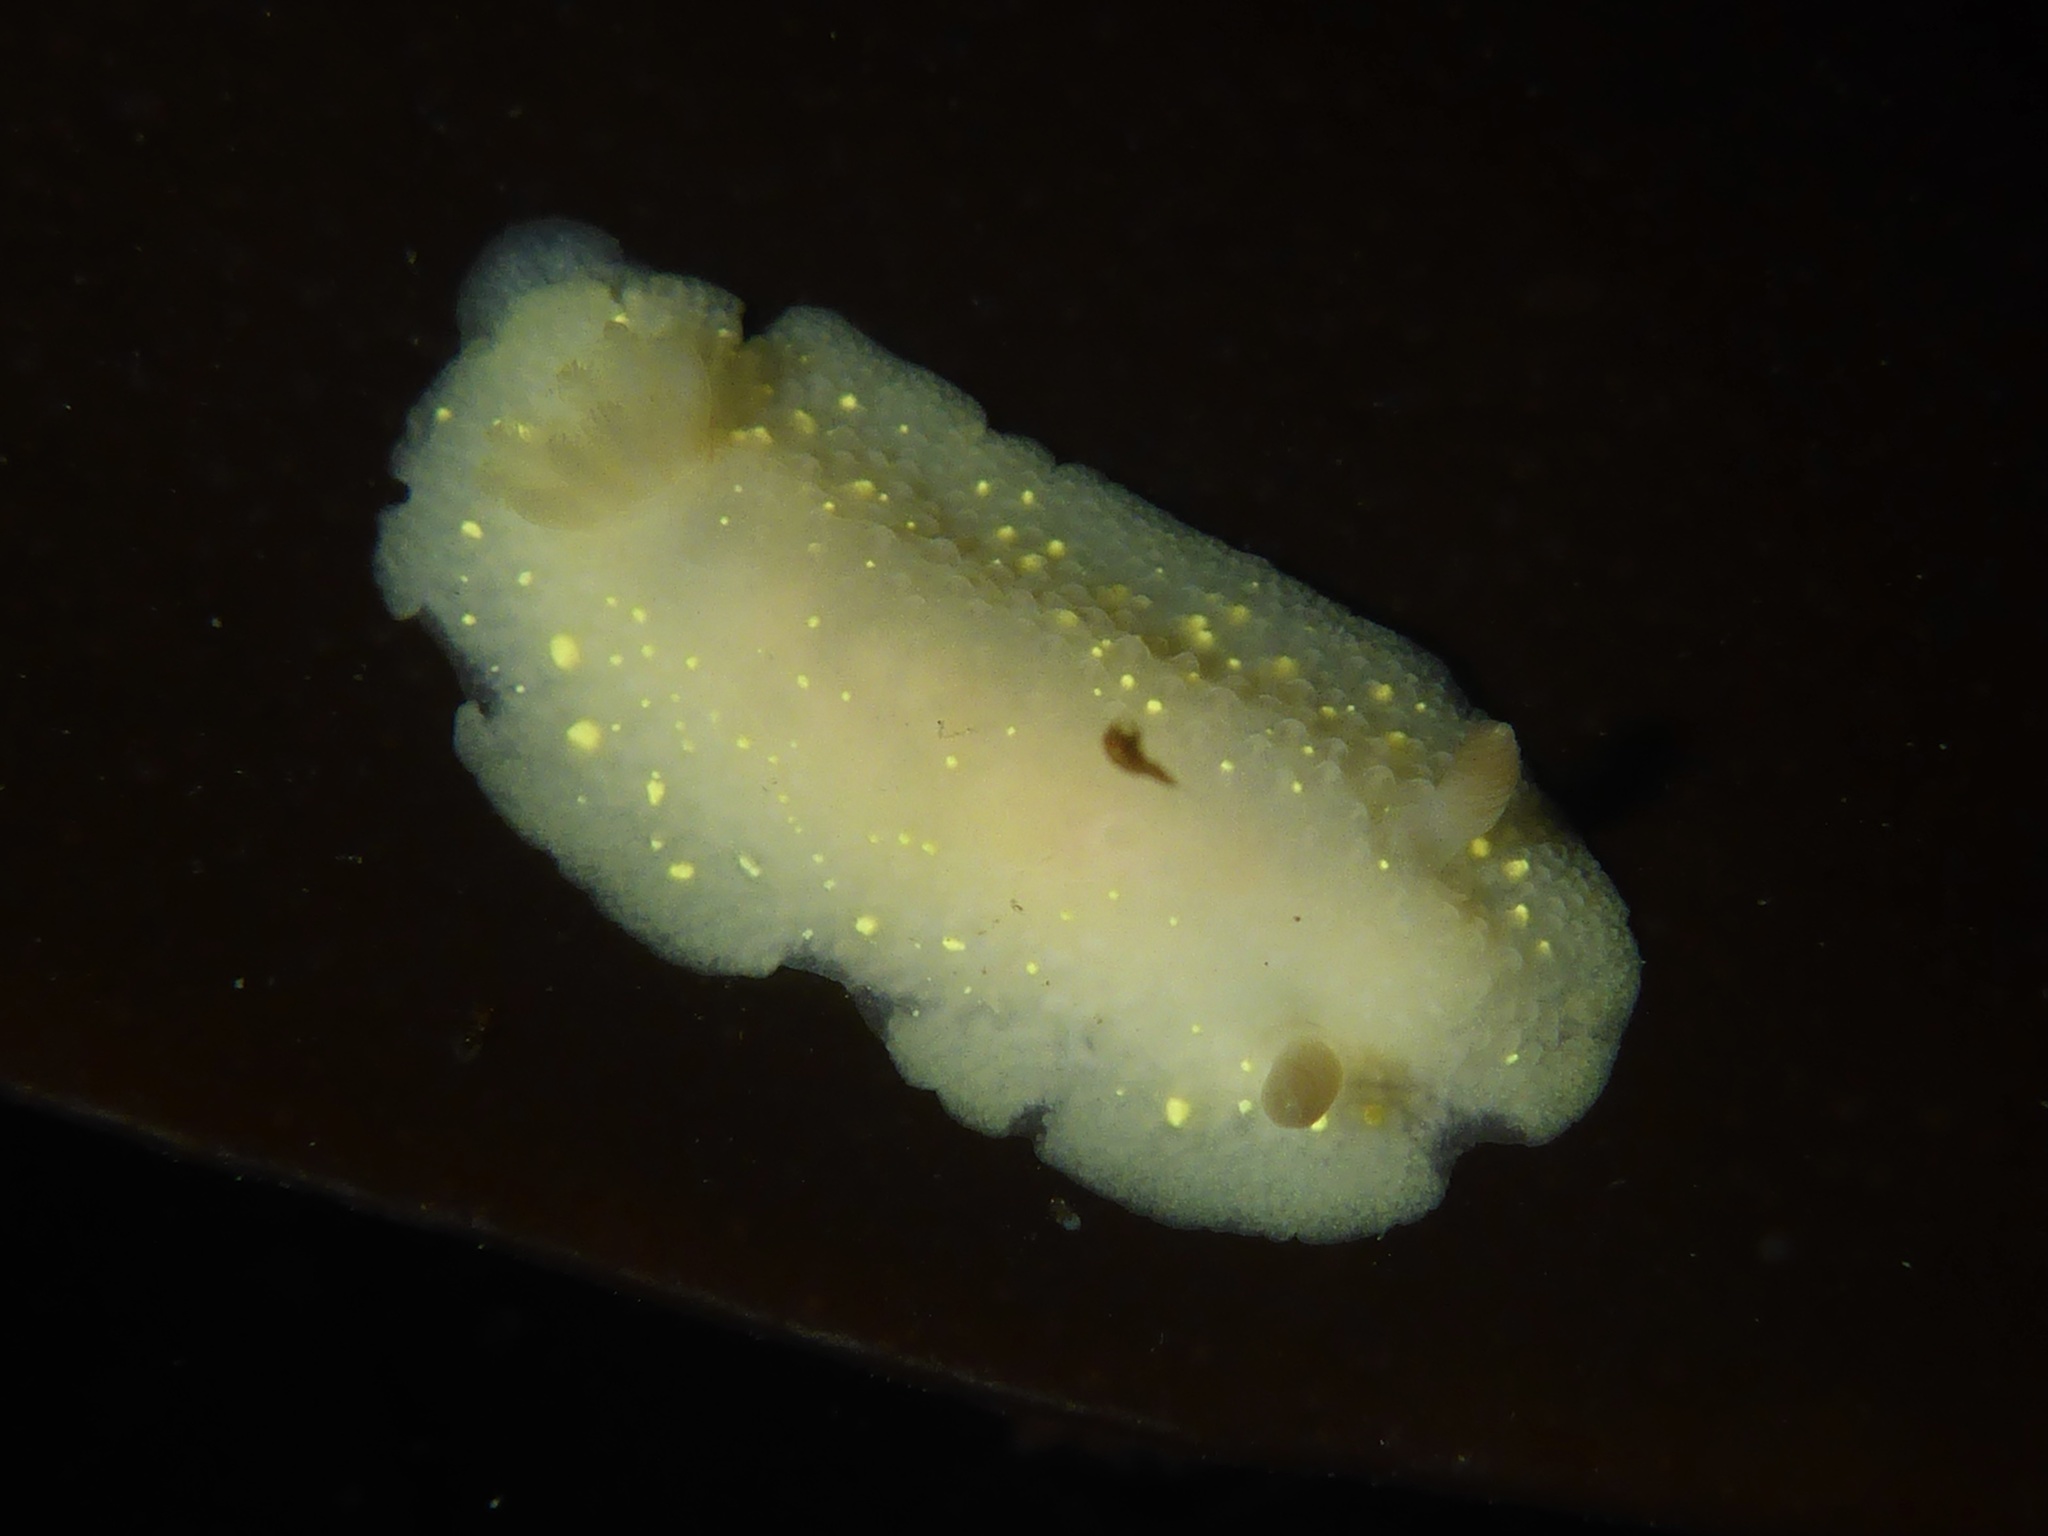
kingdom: Animalia
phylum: Mollusca
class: Gastropoda
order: Nudibranchia
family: Cadlinidae
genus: Cadlina
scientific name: Cadlina modesta
